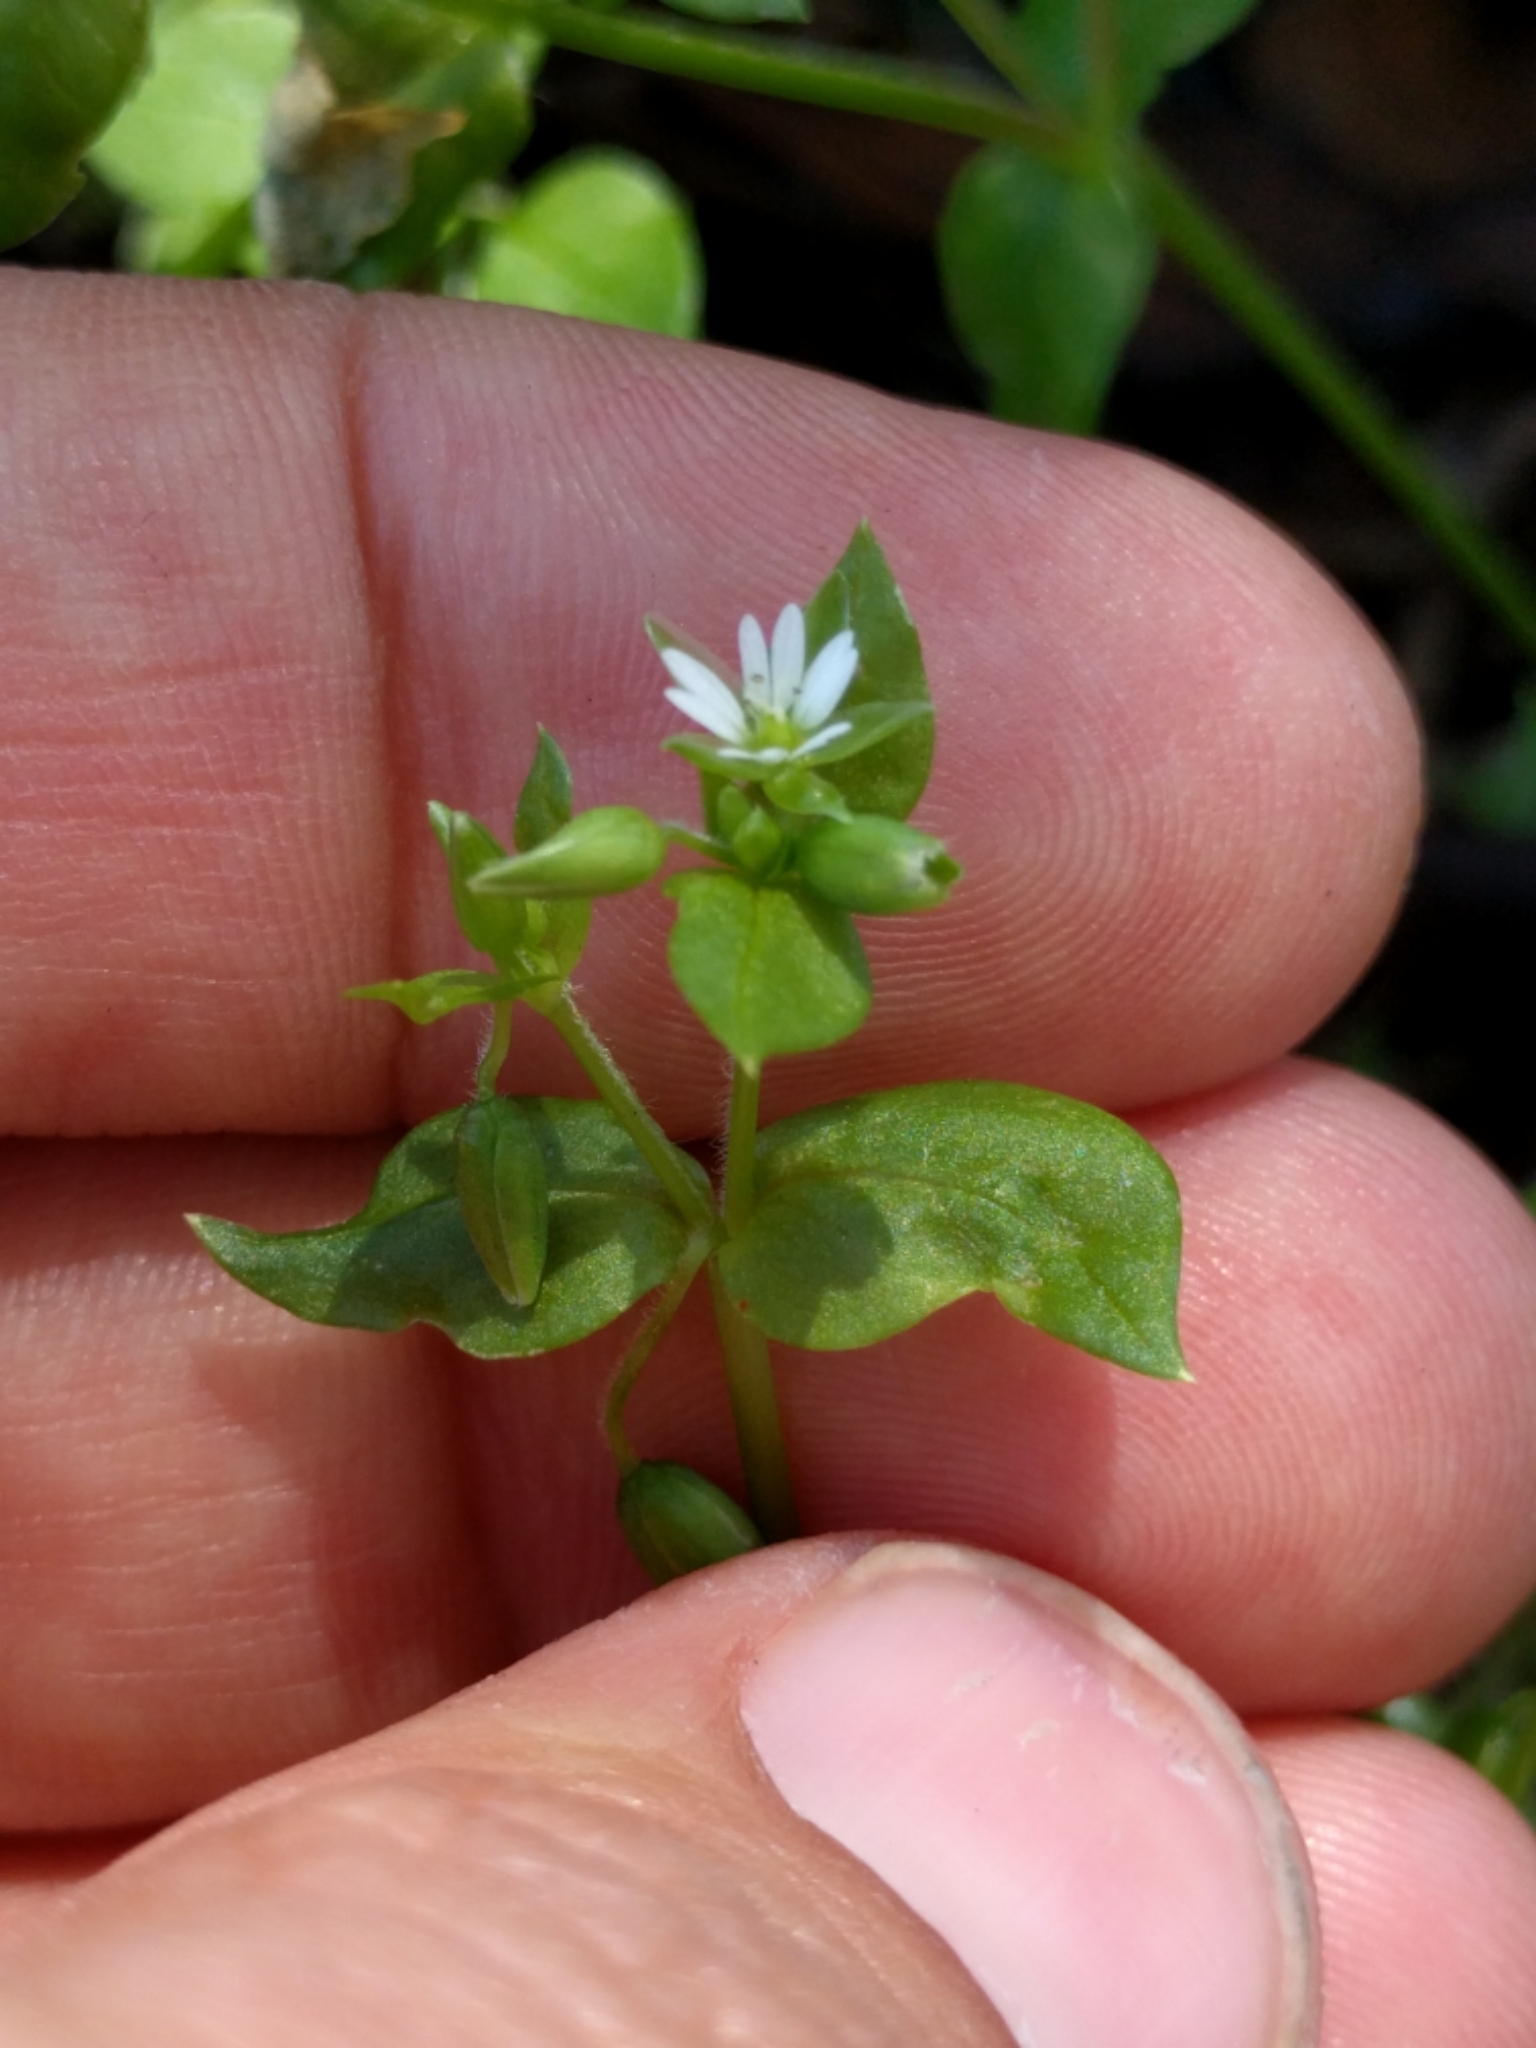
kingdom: Plantae
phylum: Tracheophyta
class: Magnoliopsida
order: Caryophyllales
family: Caryophyllaceae
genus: Stellaria
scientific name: Stellaria media
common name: Common chickweed
